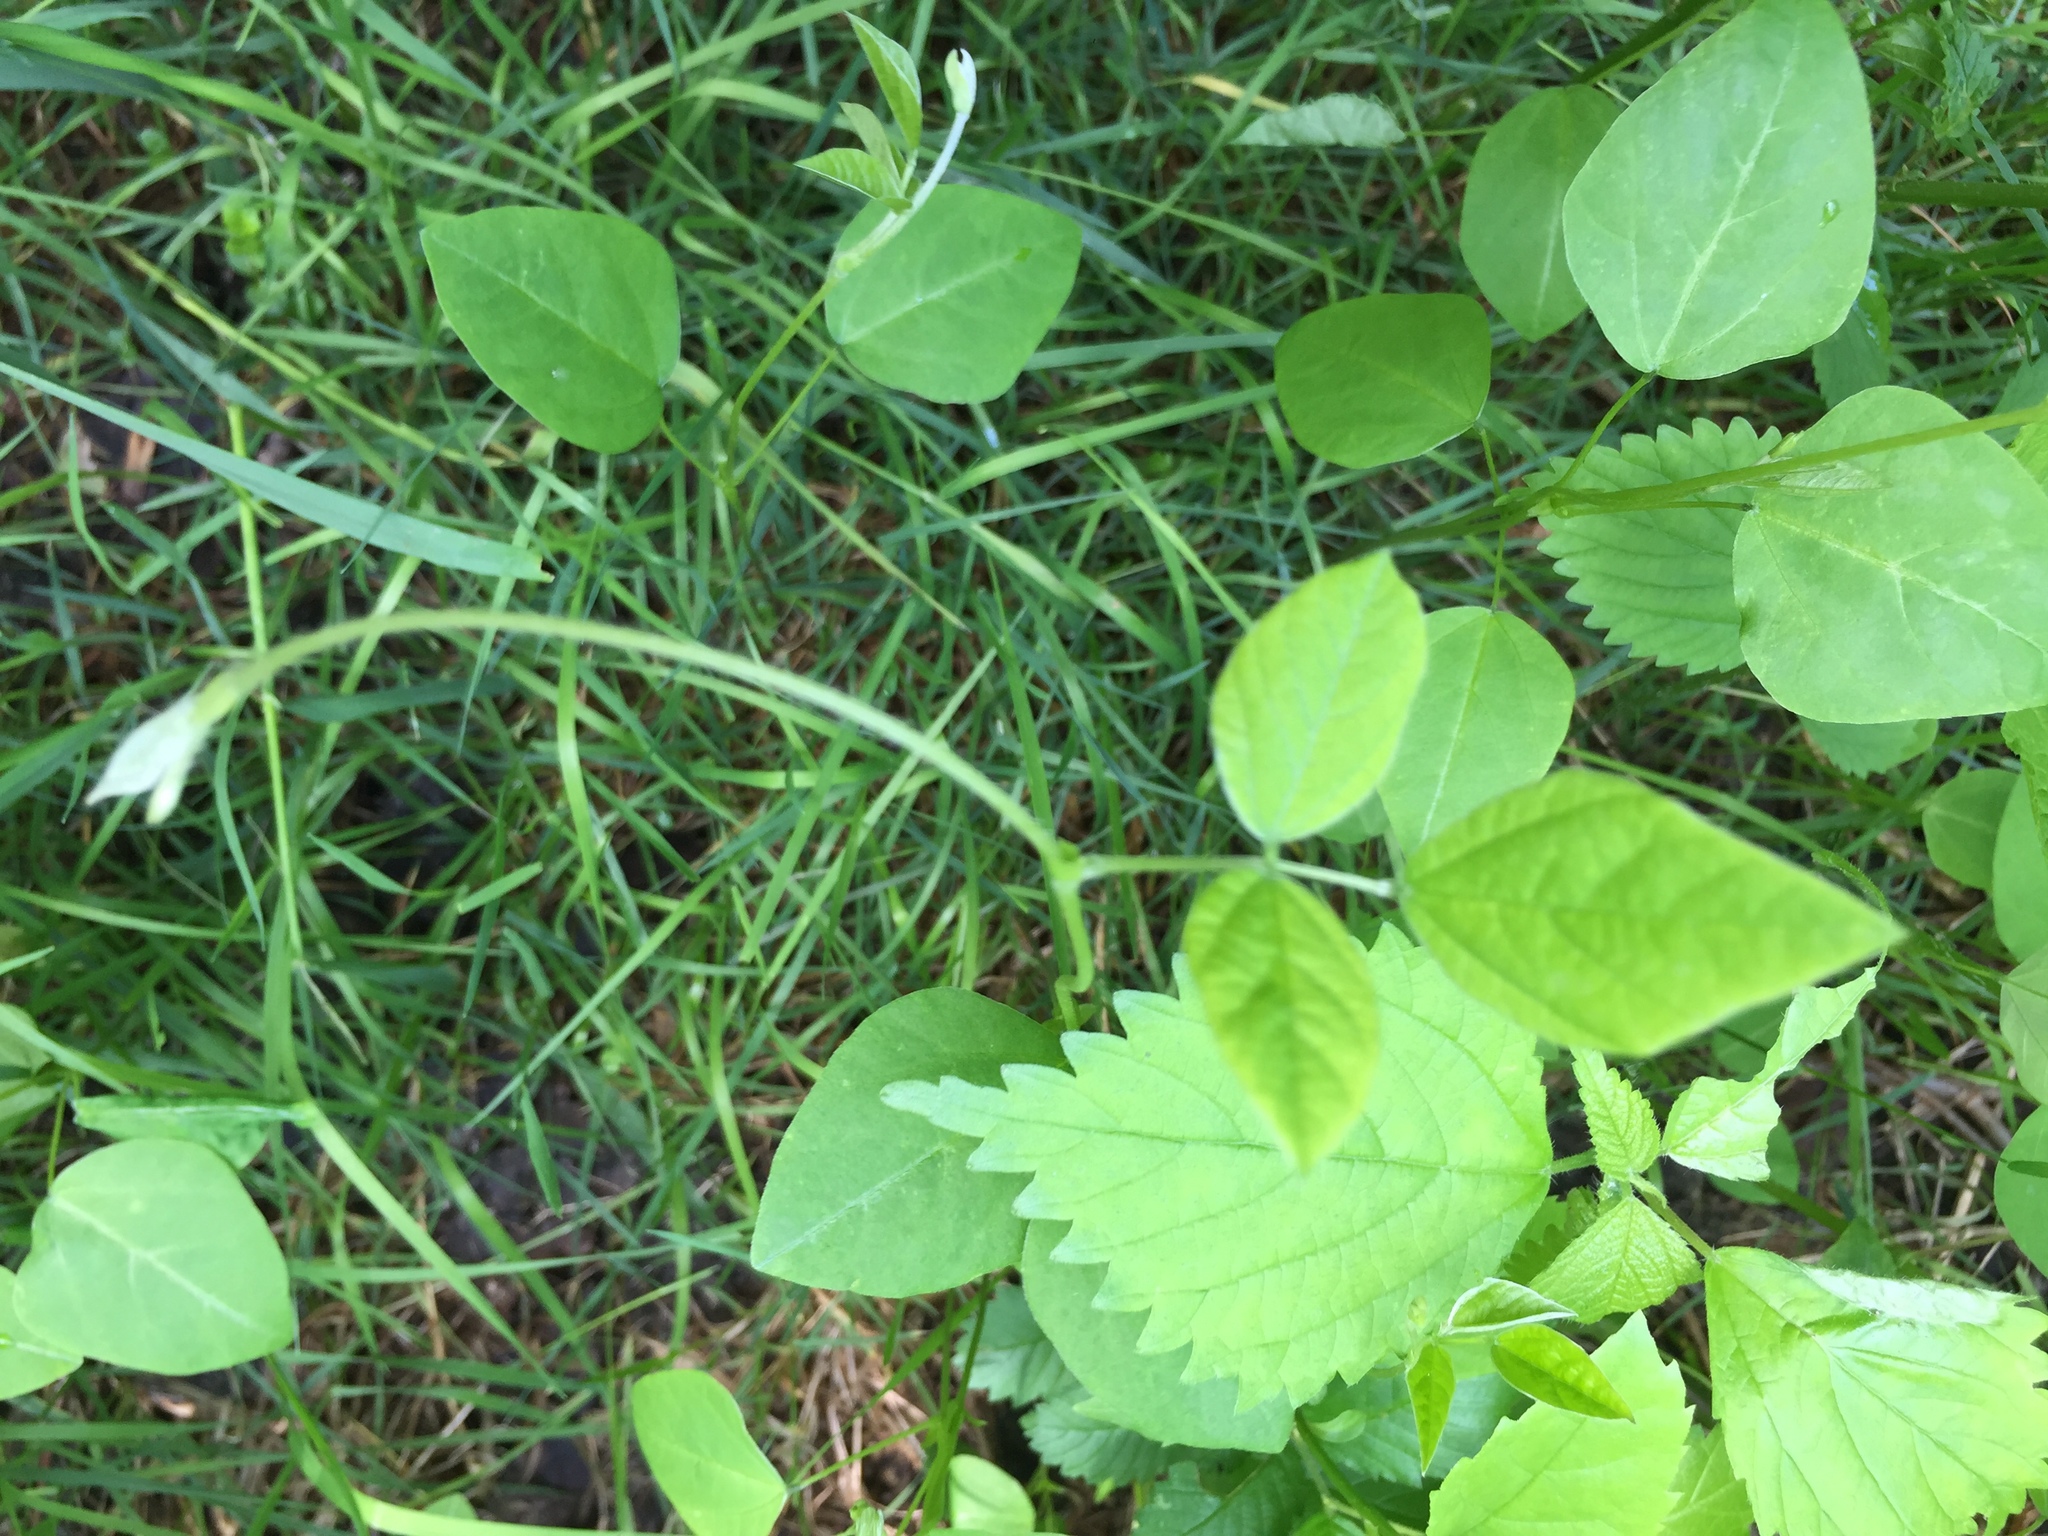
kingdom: Plantae
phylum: Tracheophyta
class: Magnoliopsida
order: Fabales
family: Fabaceae
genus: Amphicarpaea
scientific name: Amphicarpaea bracteata
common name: American hog peanut
